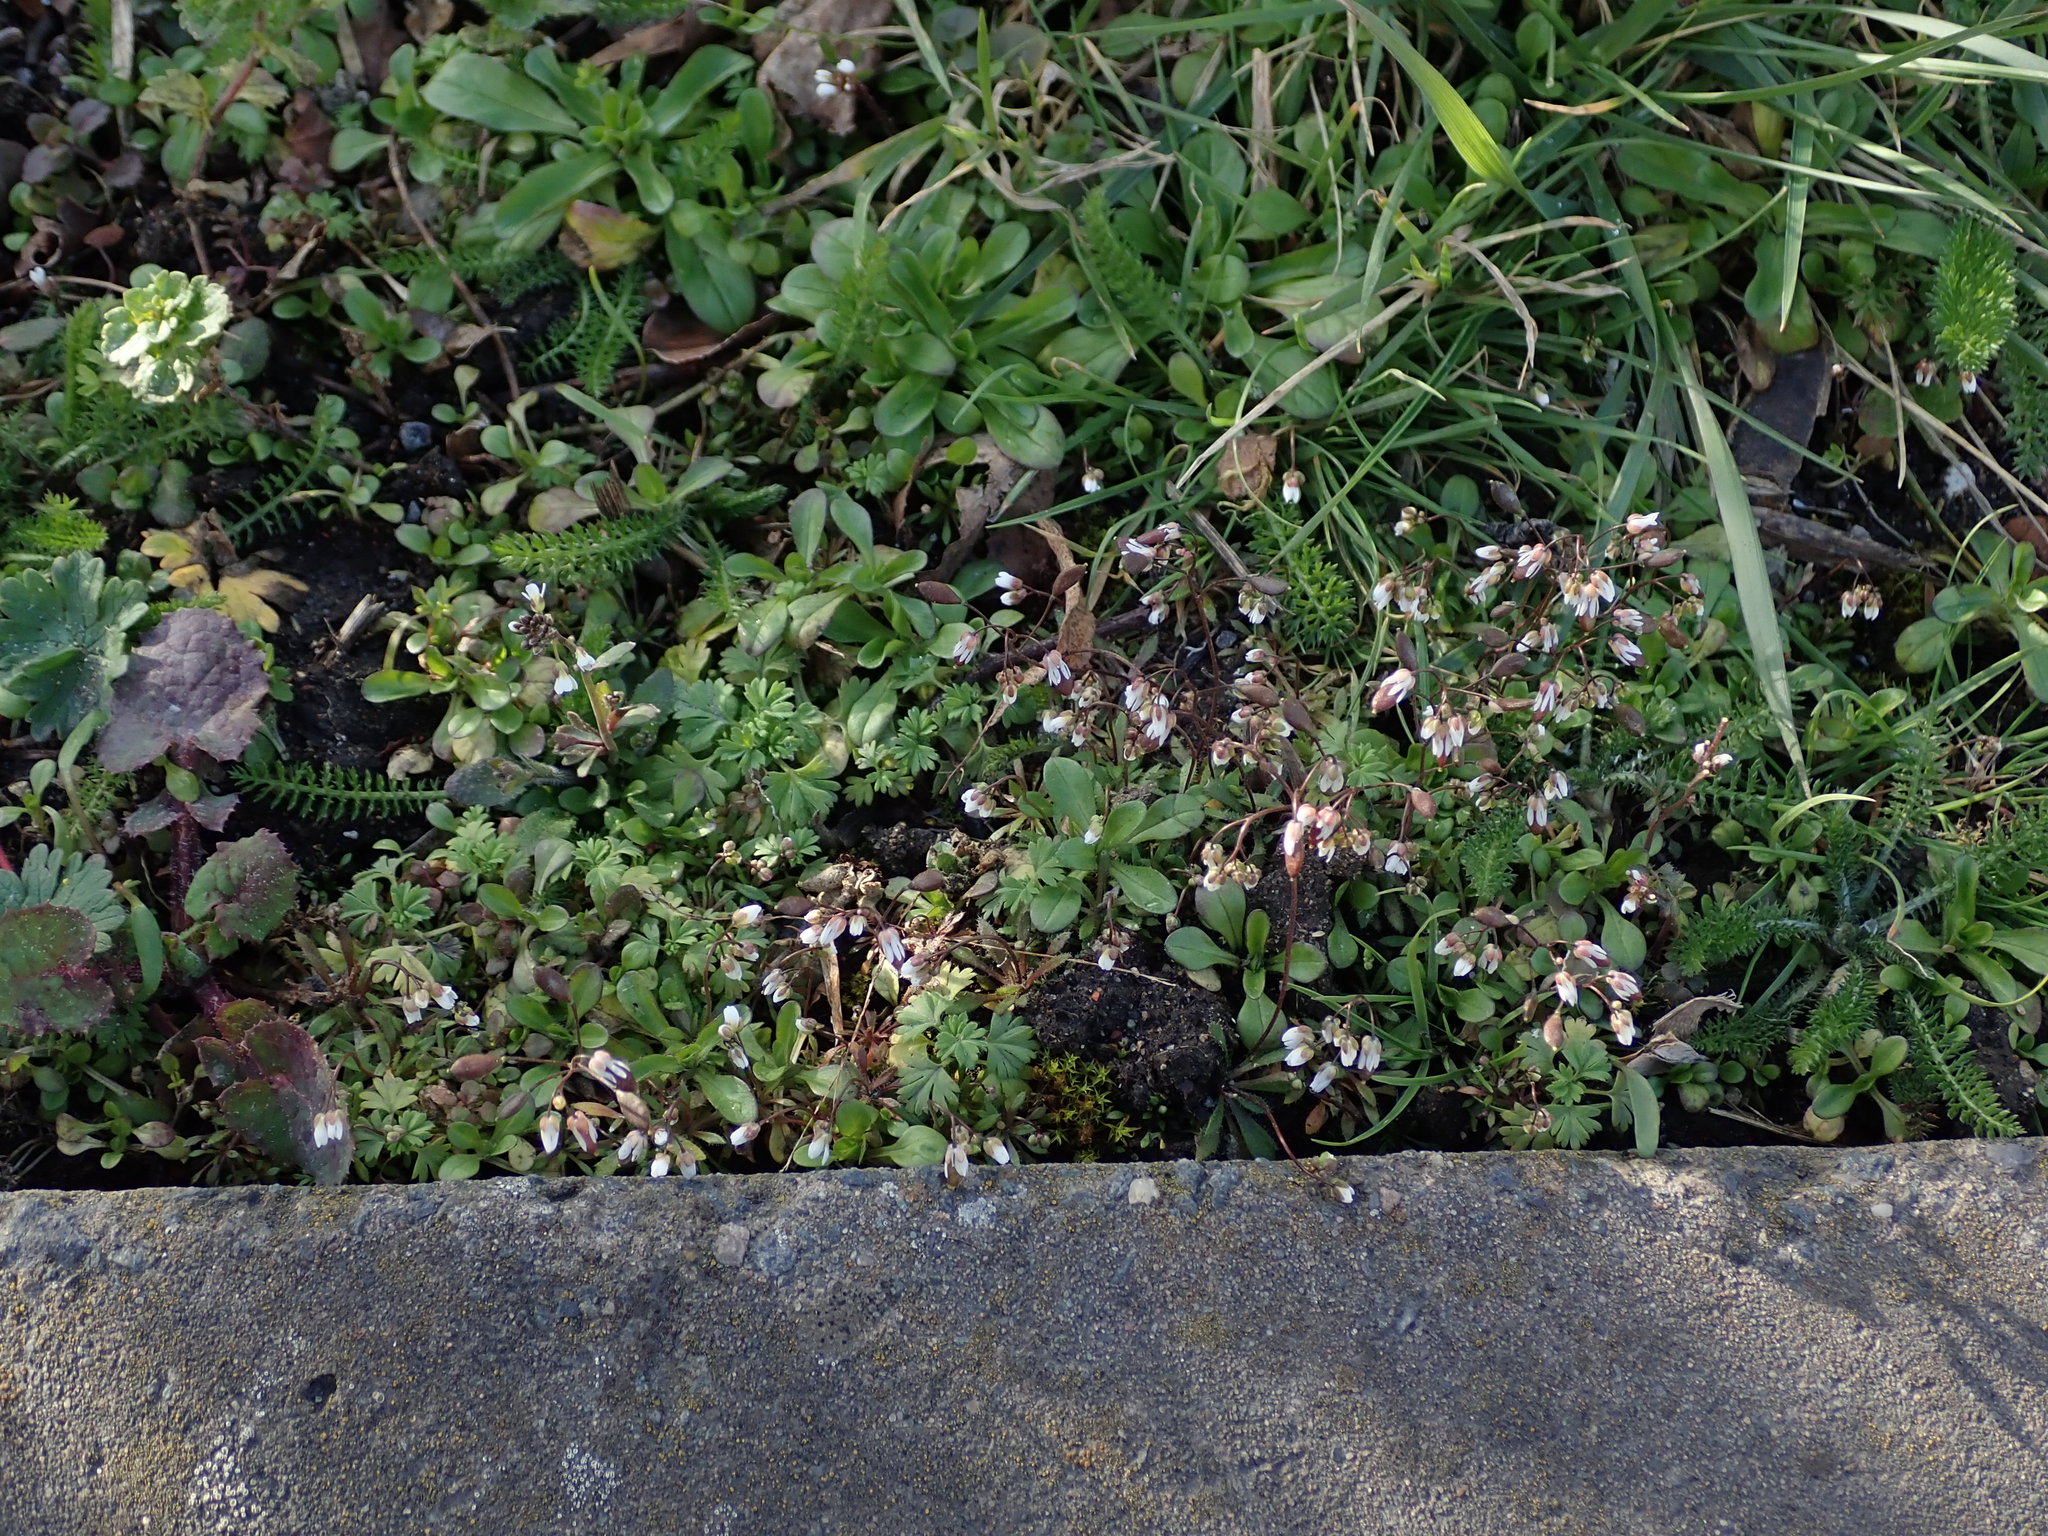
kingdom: Plantae
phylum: Tracheophyta
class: Magnoliopsida
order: Brassicales
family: Brassicaceae
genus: Draba
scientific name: Draba verna
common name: Spring draba
